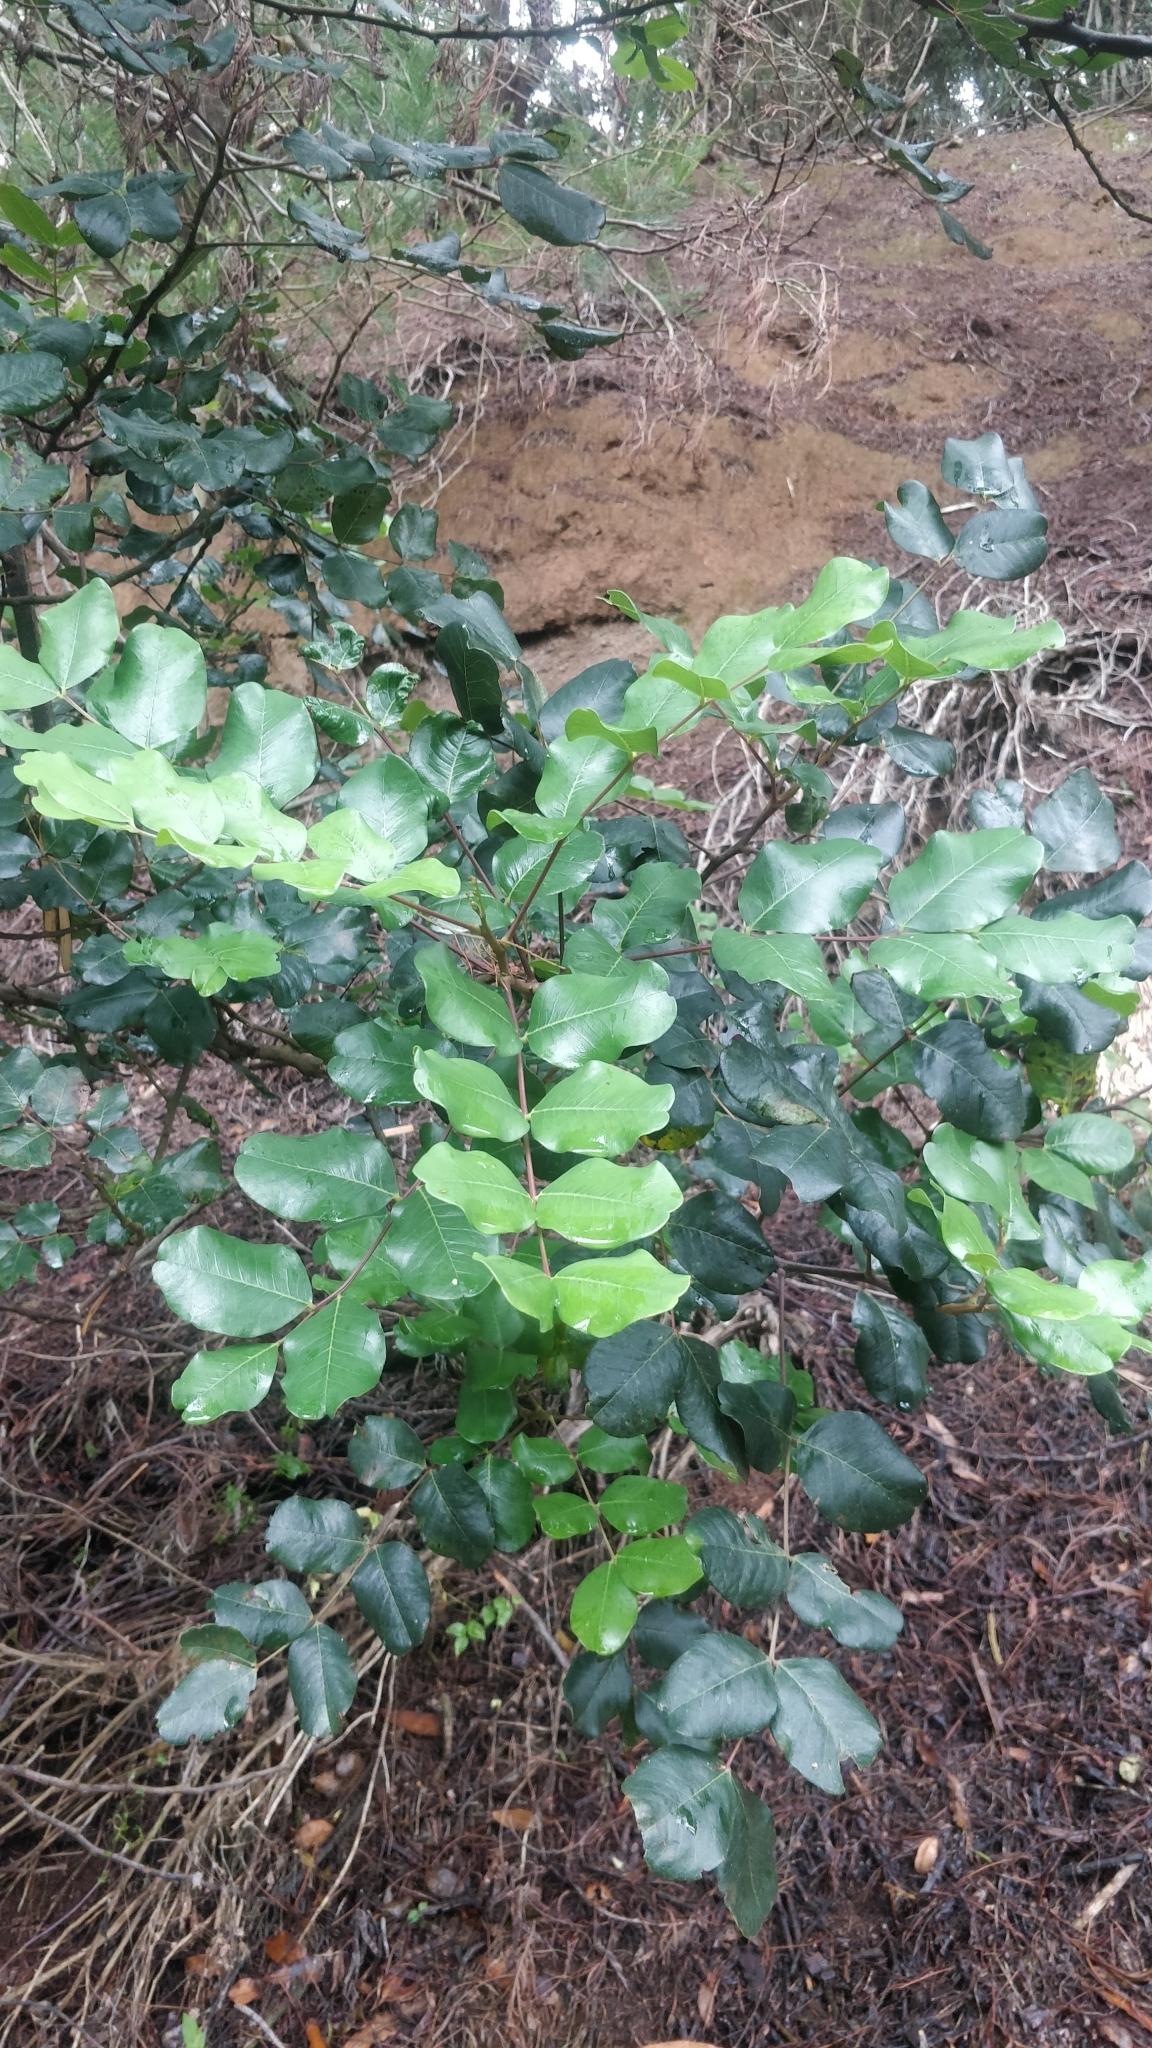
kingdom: Plantae
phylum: Tracheophyta
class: Magnoliopsida
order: Fabales
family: Fabaceae
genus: Ceratonia
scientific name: Ceratonia siliqua
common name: Carob
